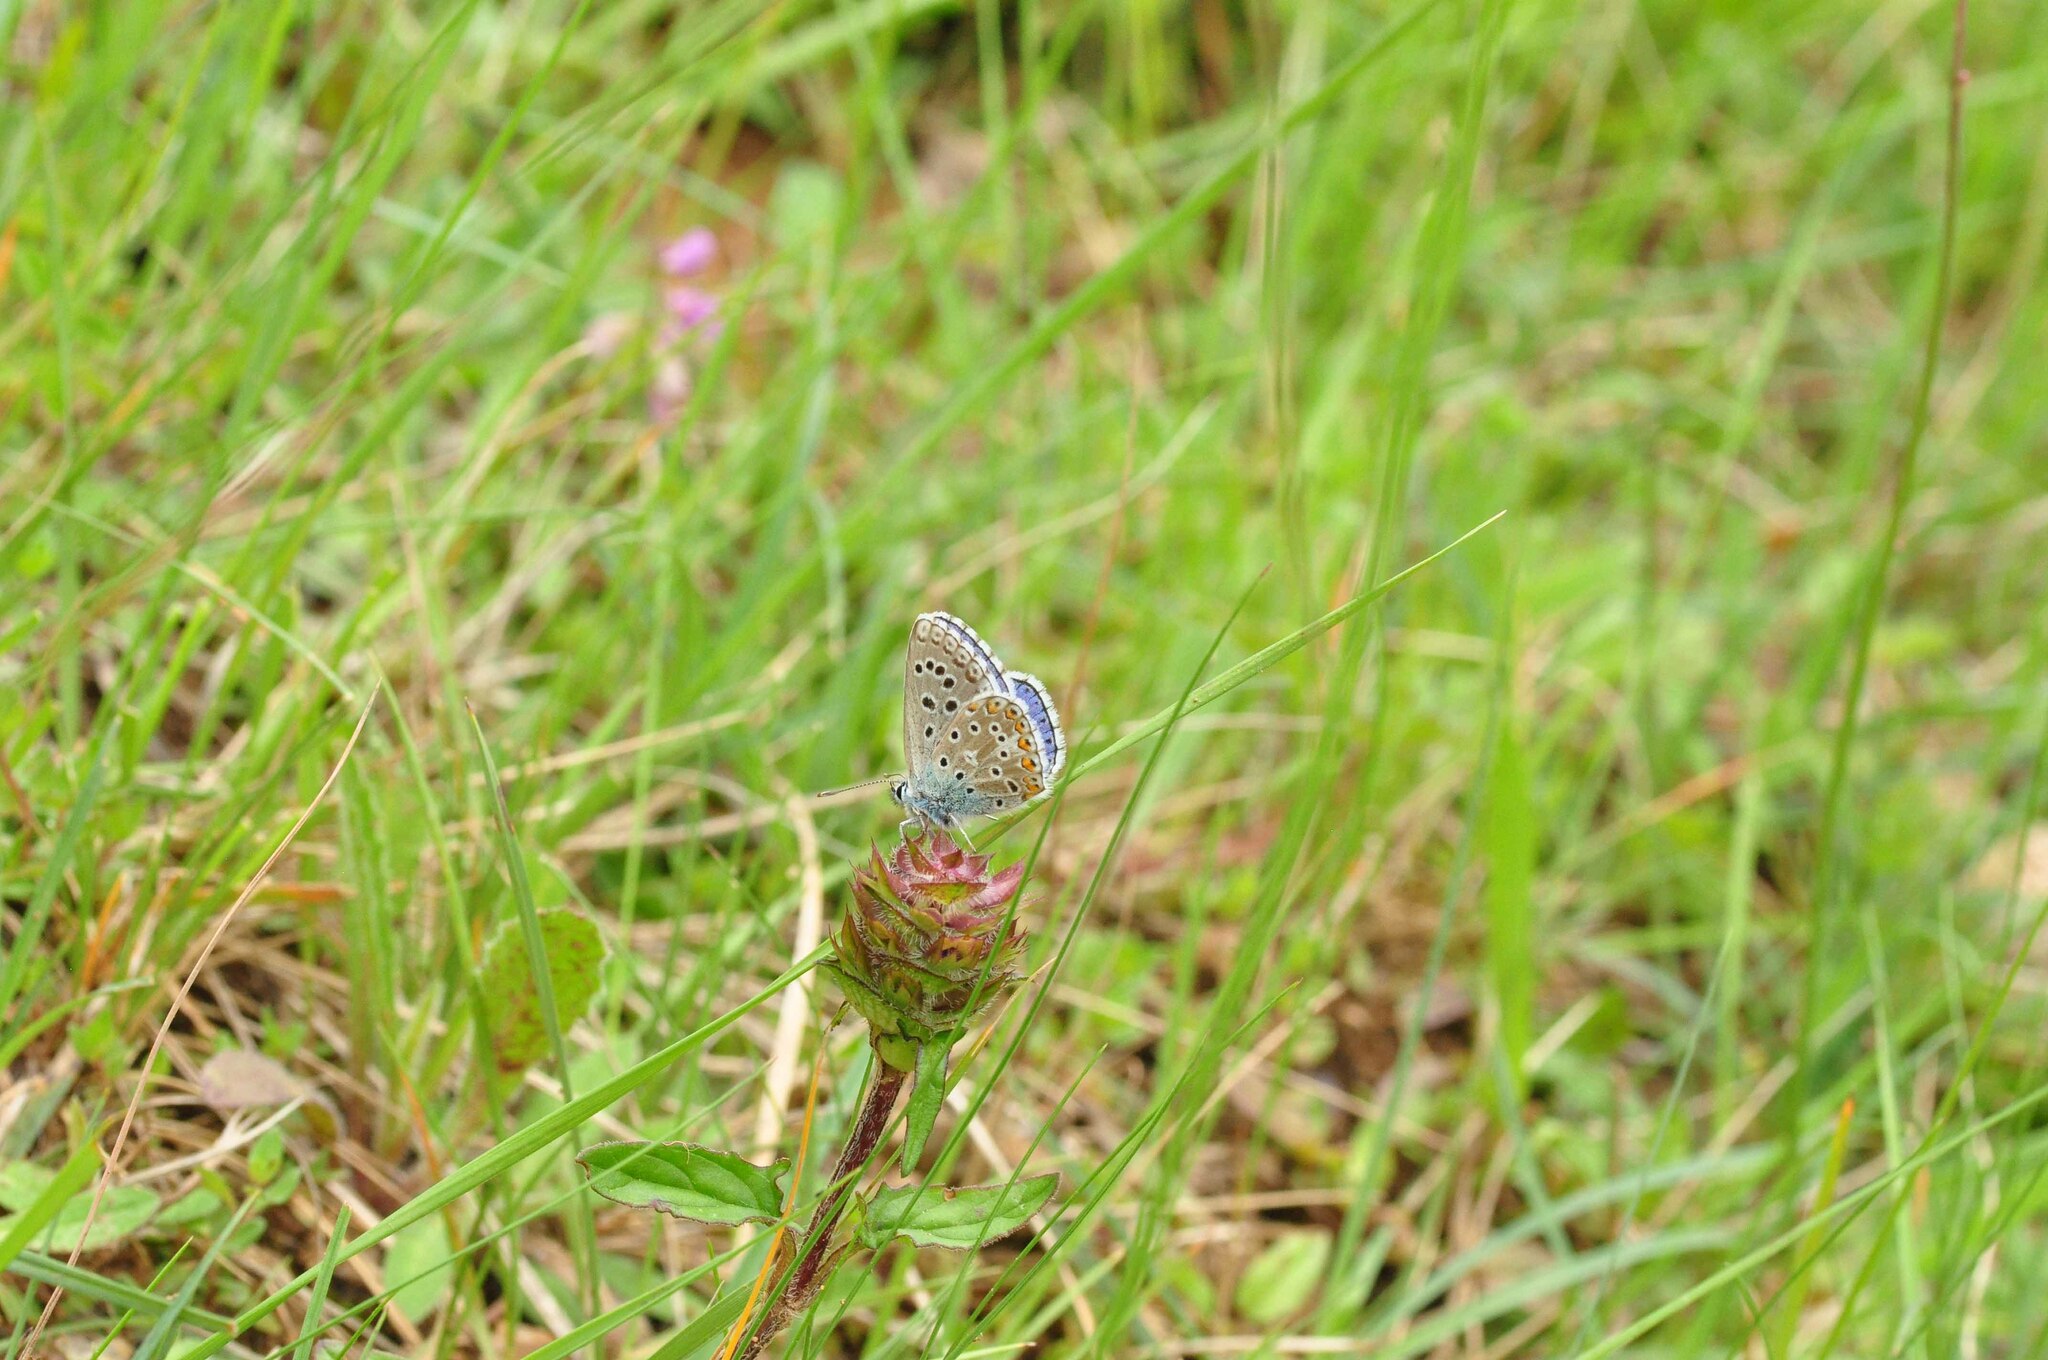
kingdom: Animalia
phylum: Arthropoda
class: Insecta
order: Lepidoptera
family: Lycaenidae
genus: Lysandra
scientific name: Lysandra bellargus
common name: Adonis blue
